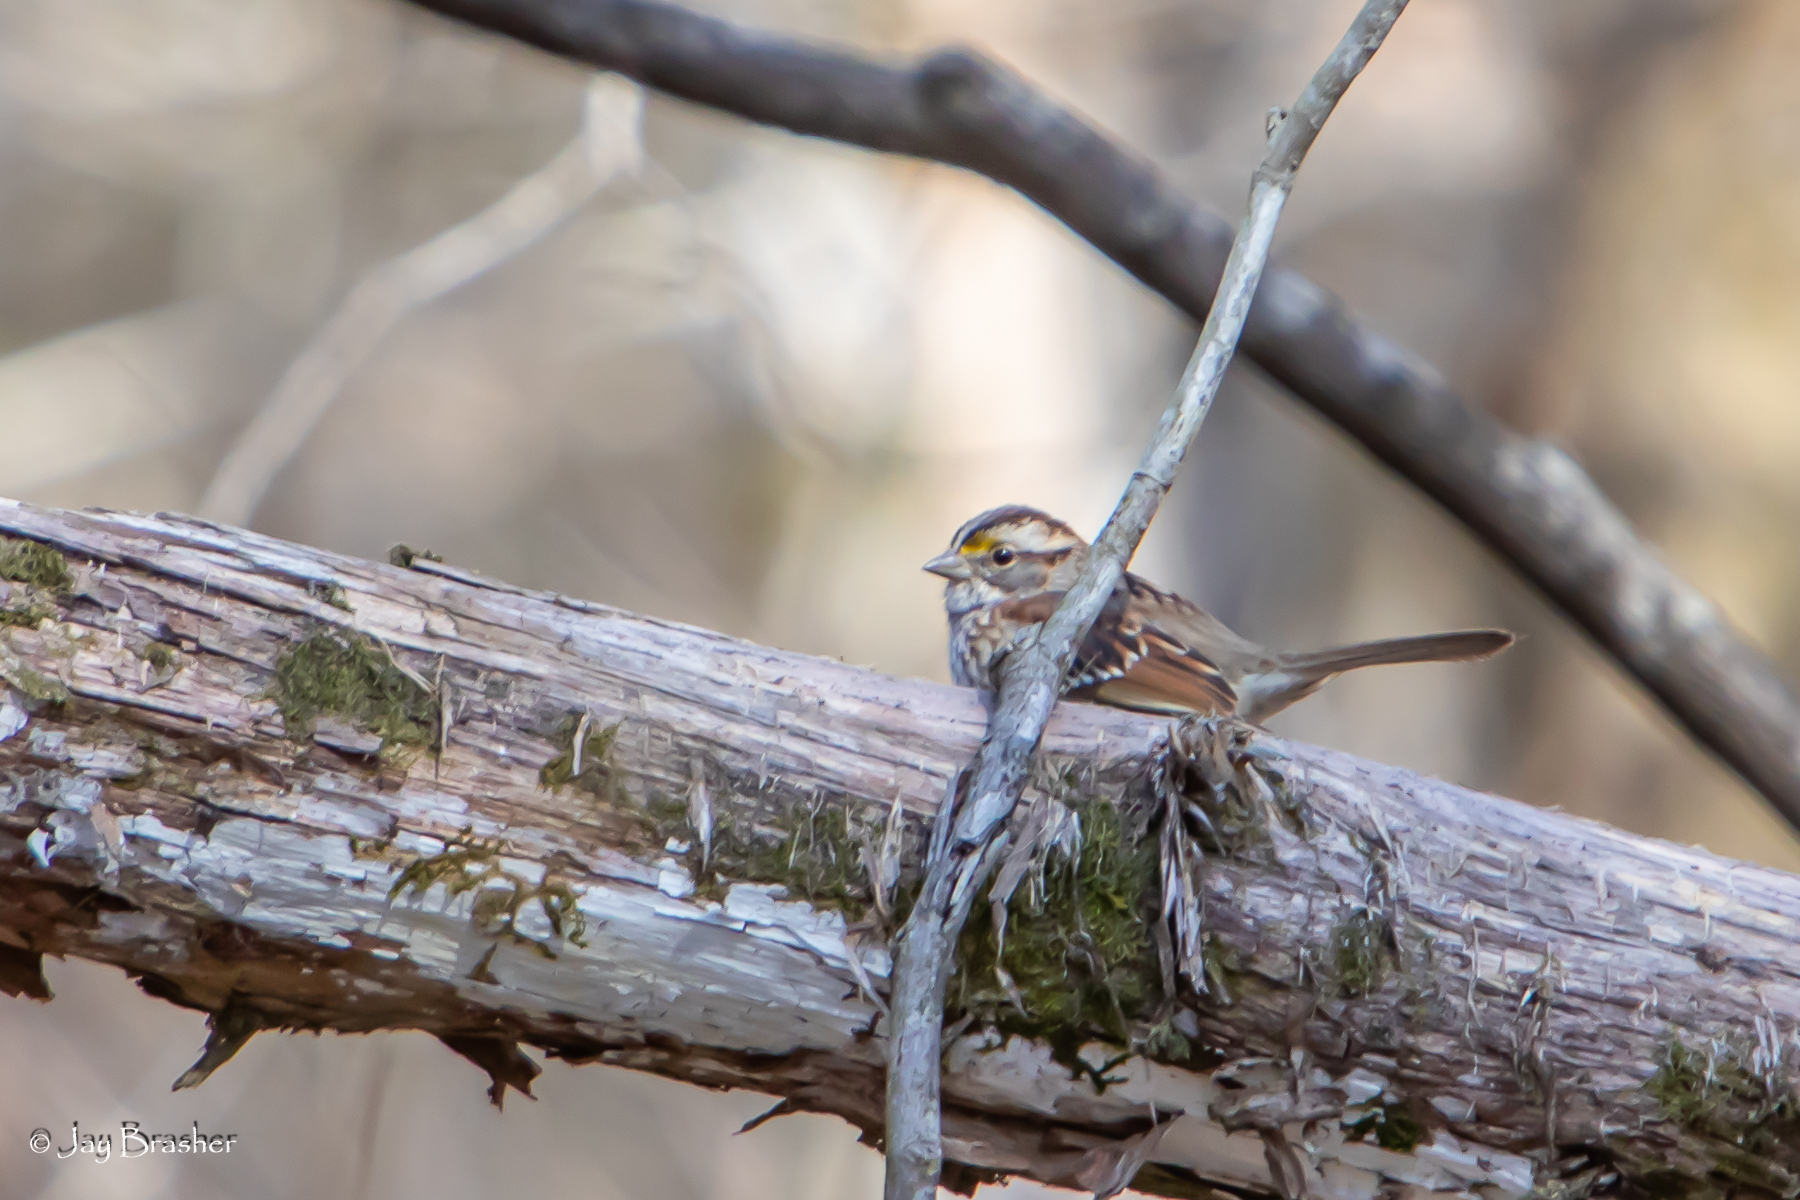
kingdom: Animalia
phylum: Chordata
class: Aves
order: Passeriformes
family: Passerellidae
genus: Zonotrichia
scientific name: Zonotrichia albicollis
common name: White-throated sparrow
